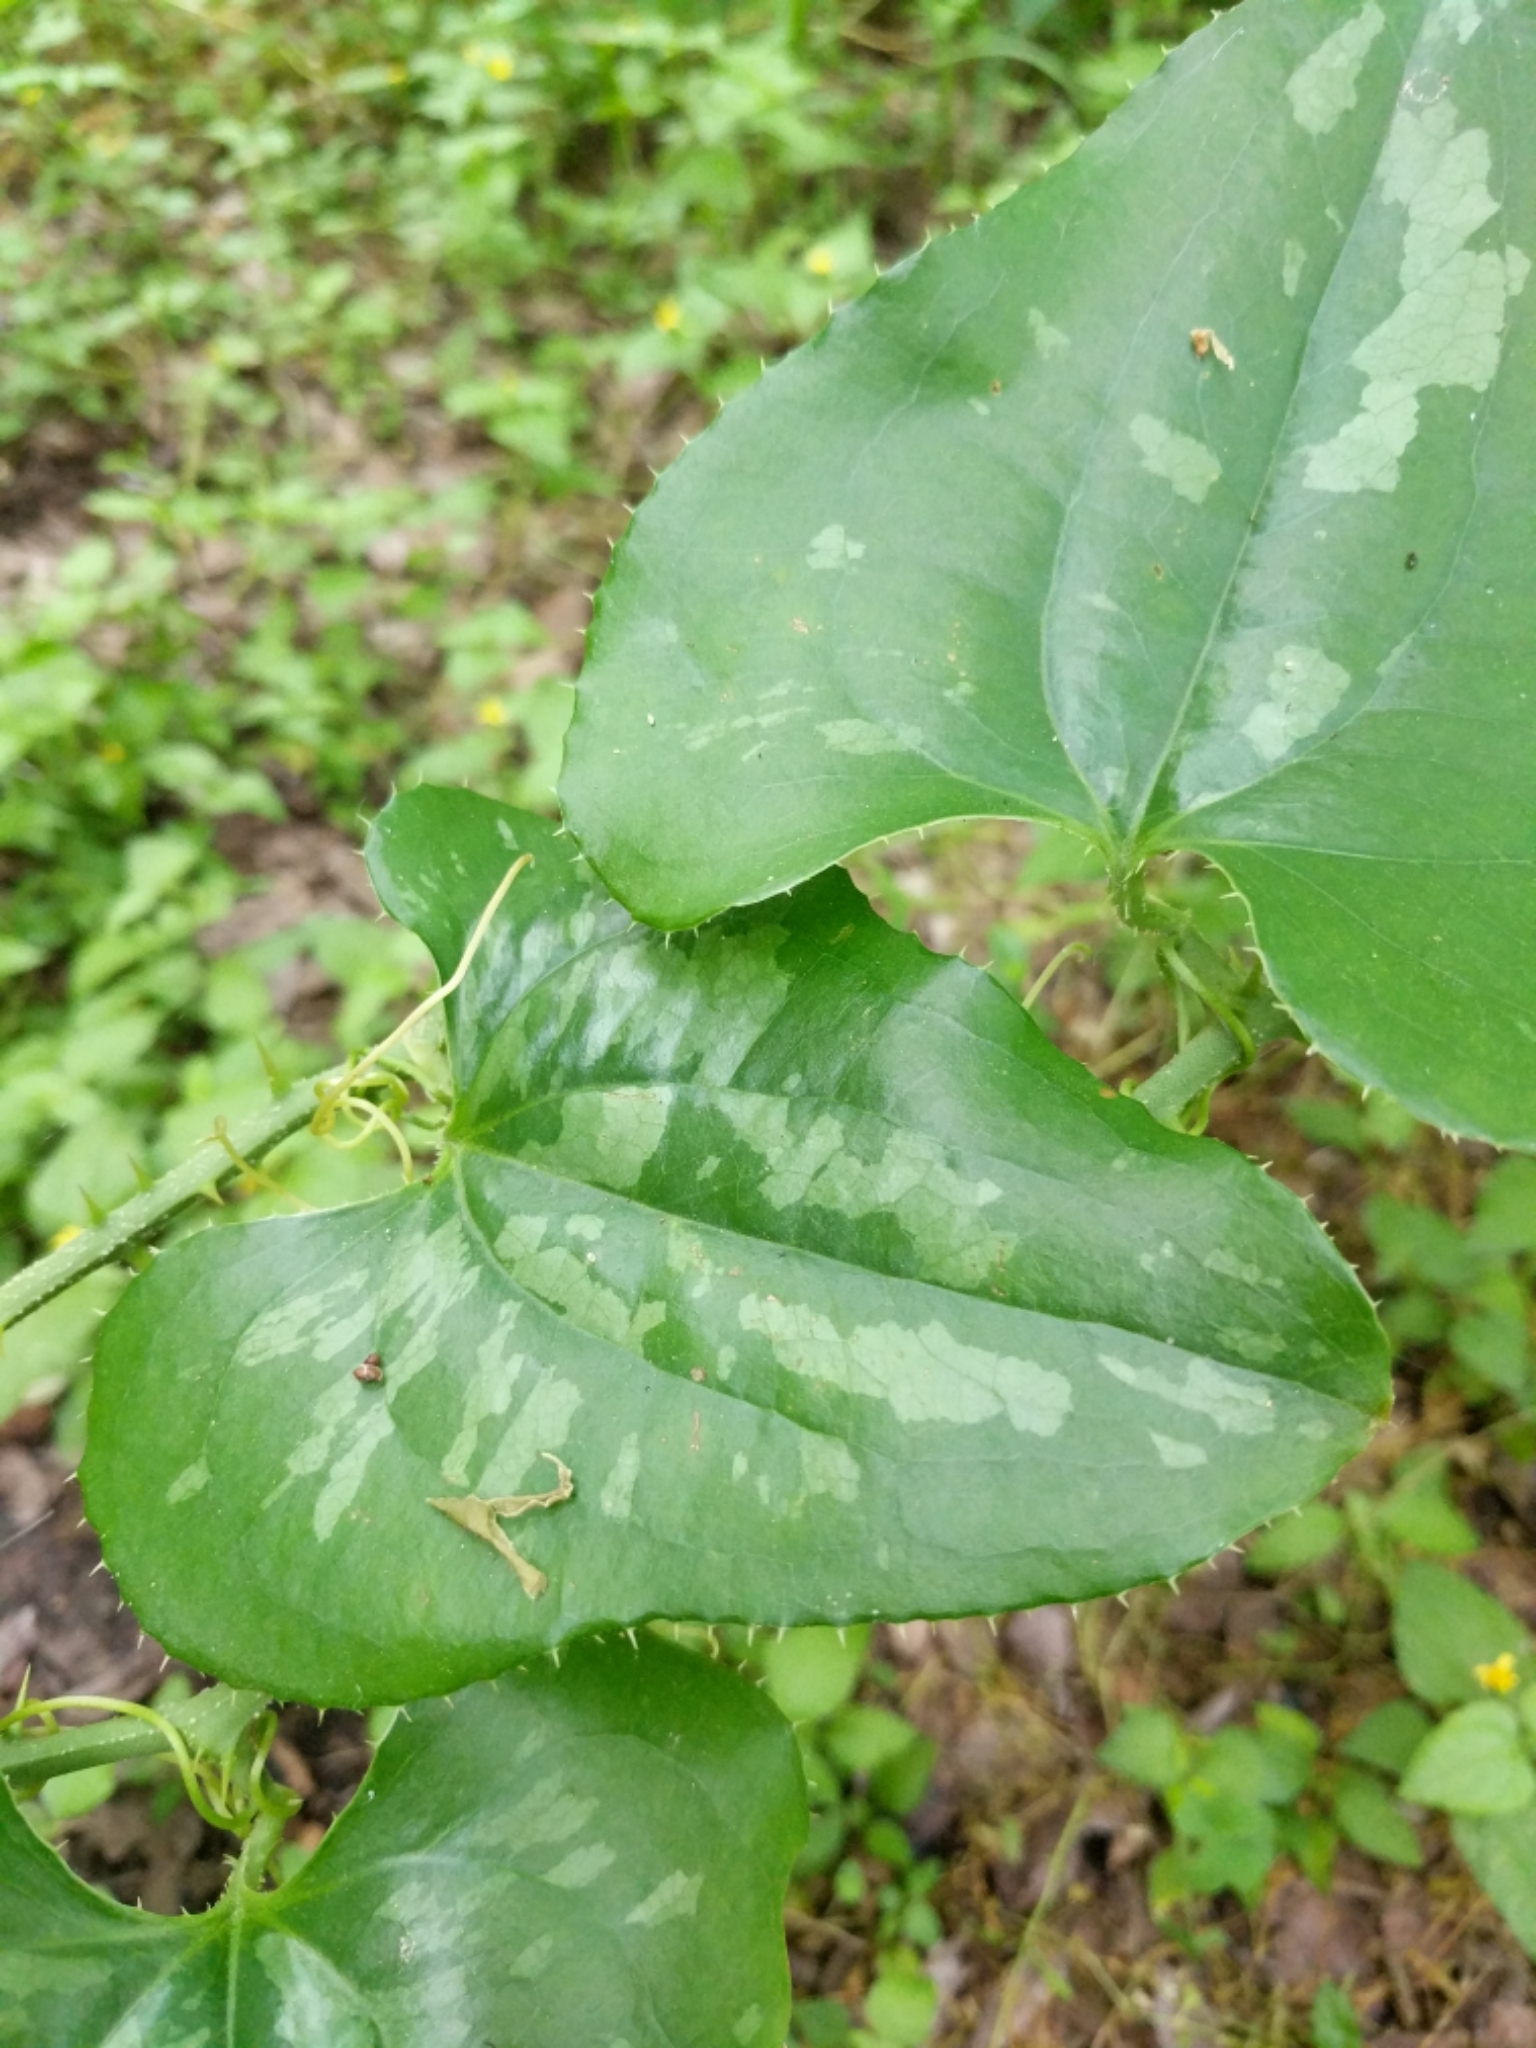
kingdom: Plantae
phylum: Tracheophyta
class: Liliopsida
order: Liliales
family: Smilacaceae
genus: Smilax
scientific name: Smilax bona-nox
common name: Catbrier
